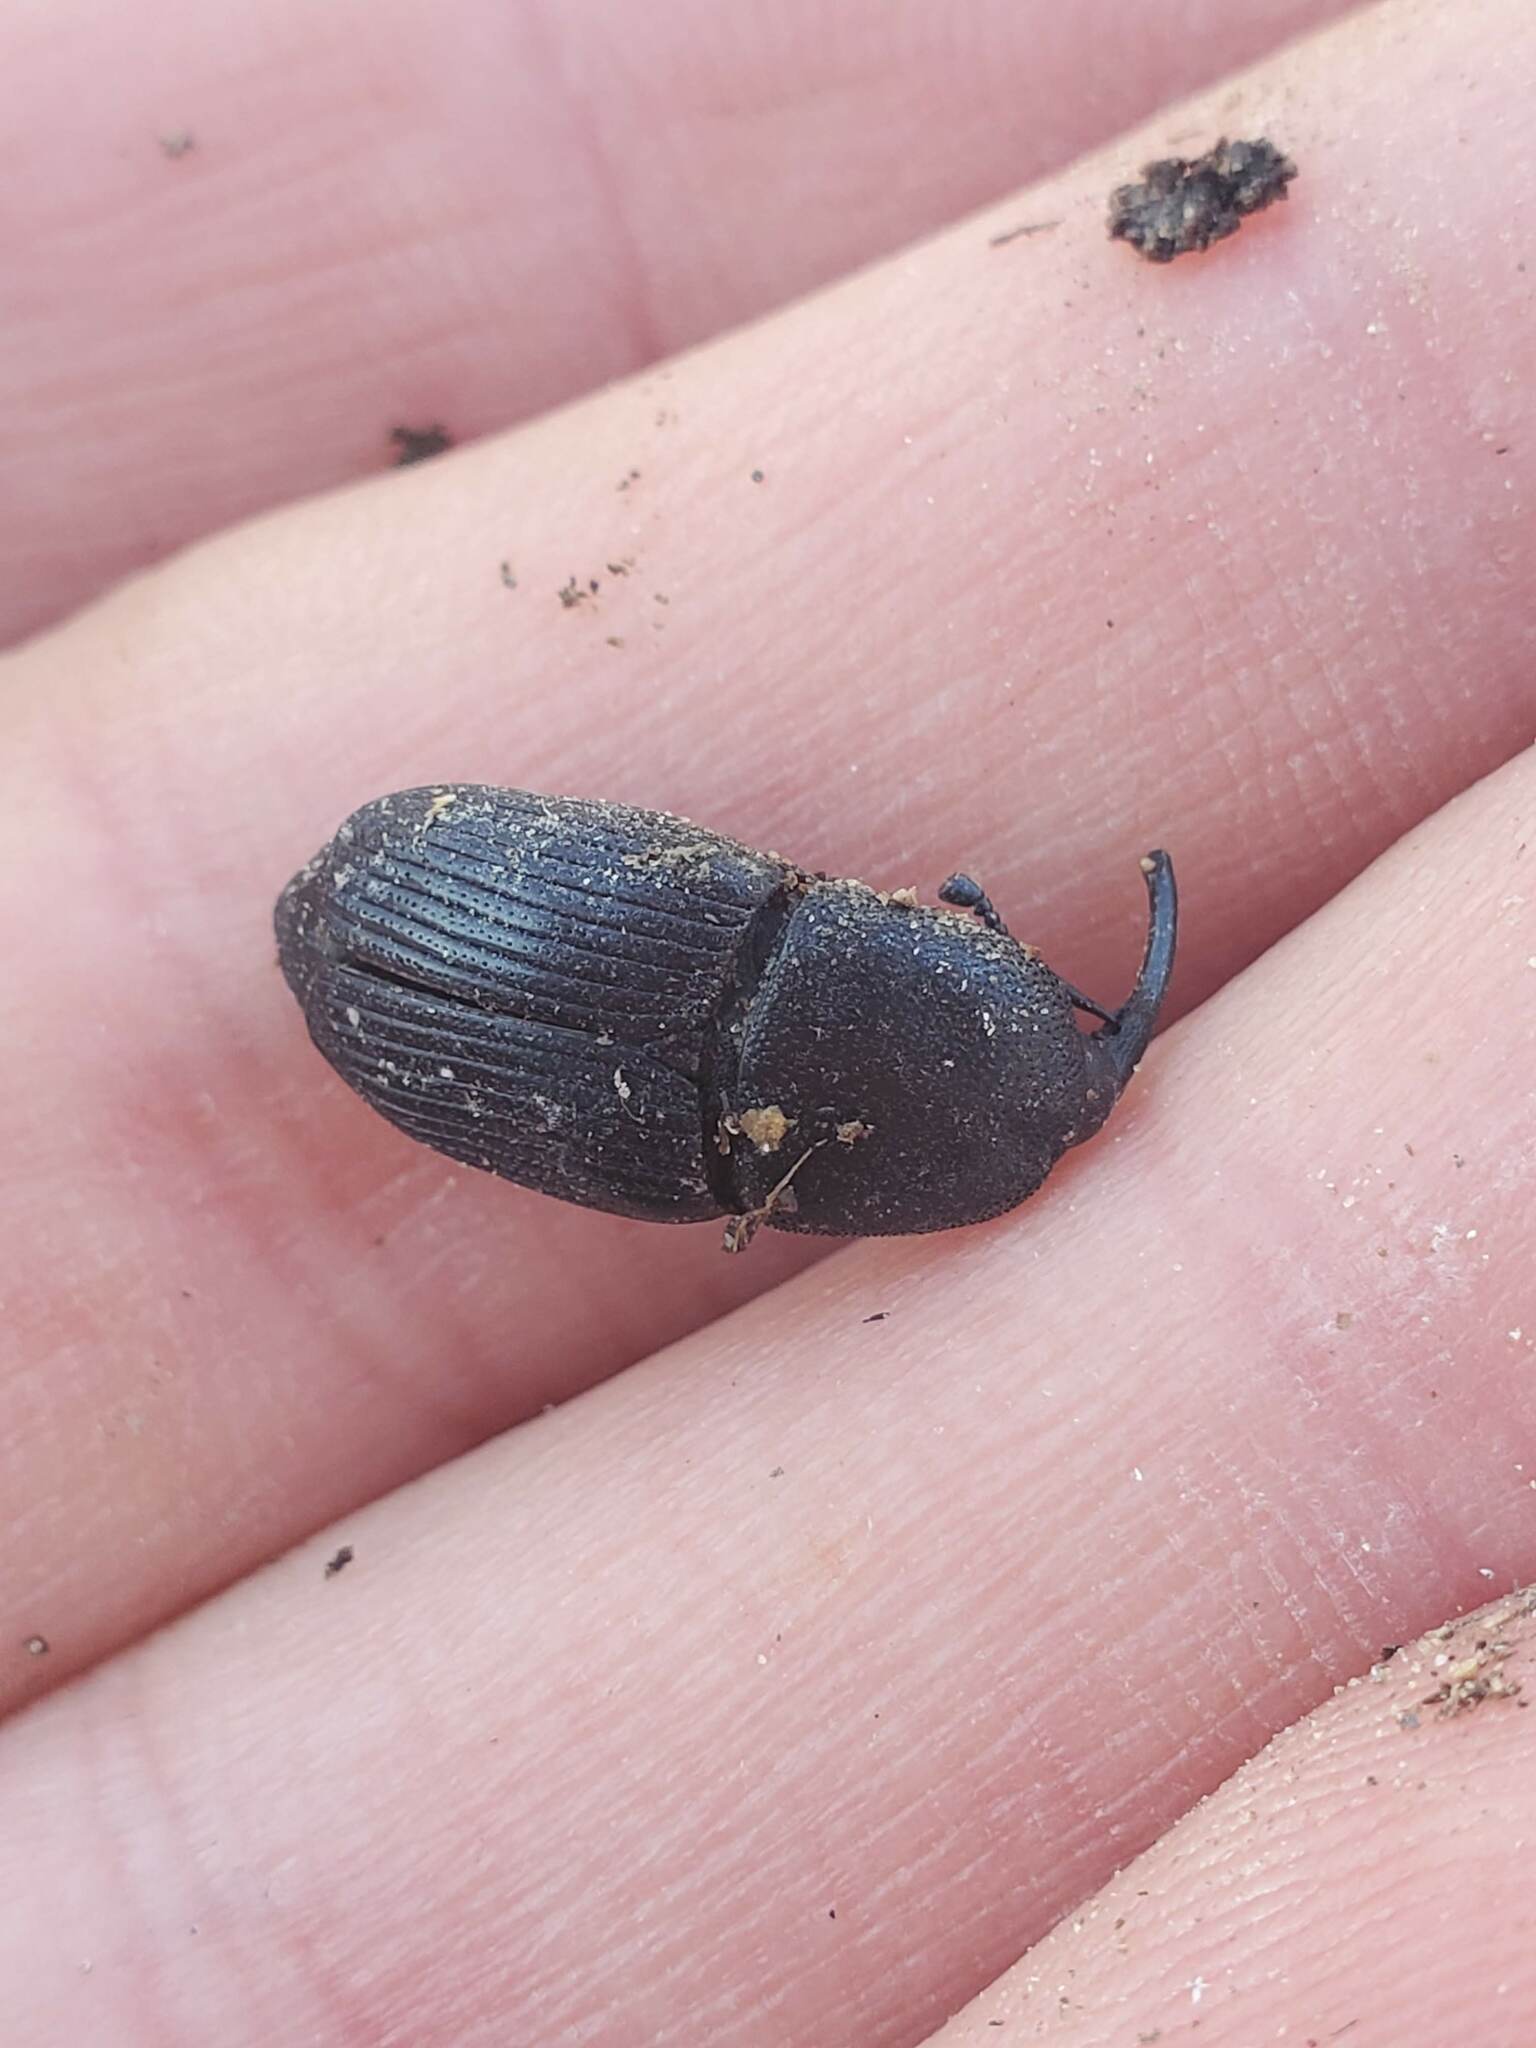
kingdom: Animalia
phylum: Arthropoda
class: Insecta
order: Coleoptera
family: Dryophthoridae
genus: Scyphophorus
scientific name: Scyphophorus yuccae
